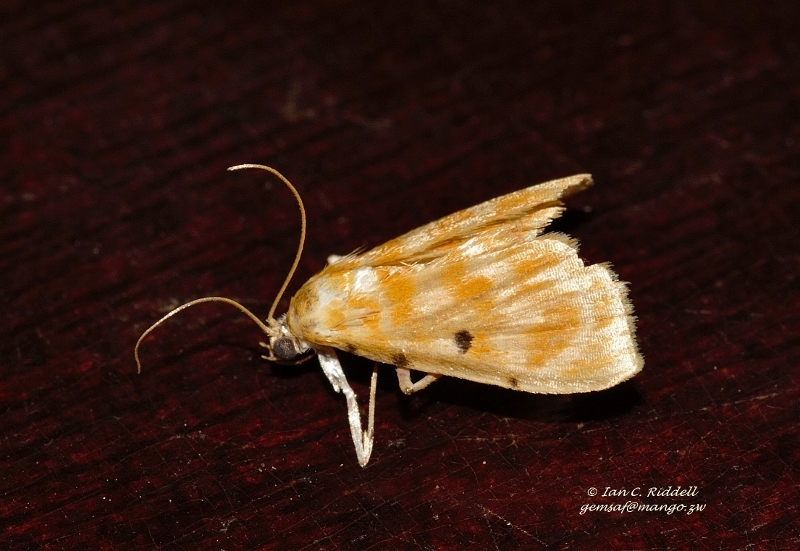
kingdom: Animalia
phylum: Arthropoda
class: Insecta
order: Lepidoptera
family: Crambidae
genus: Notarcha
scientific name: Notarcha quaternalis
